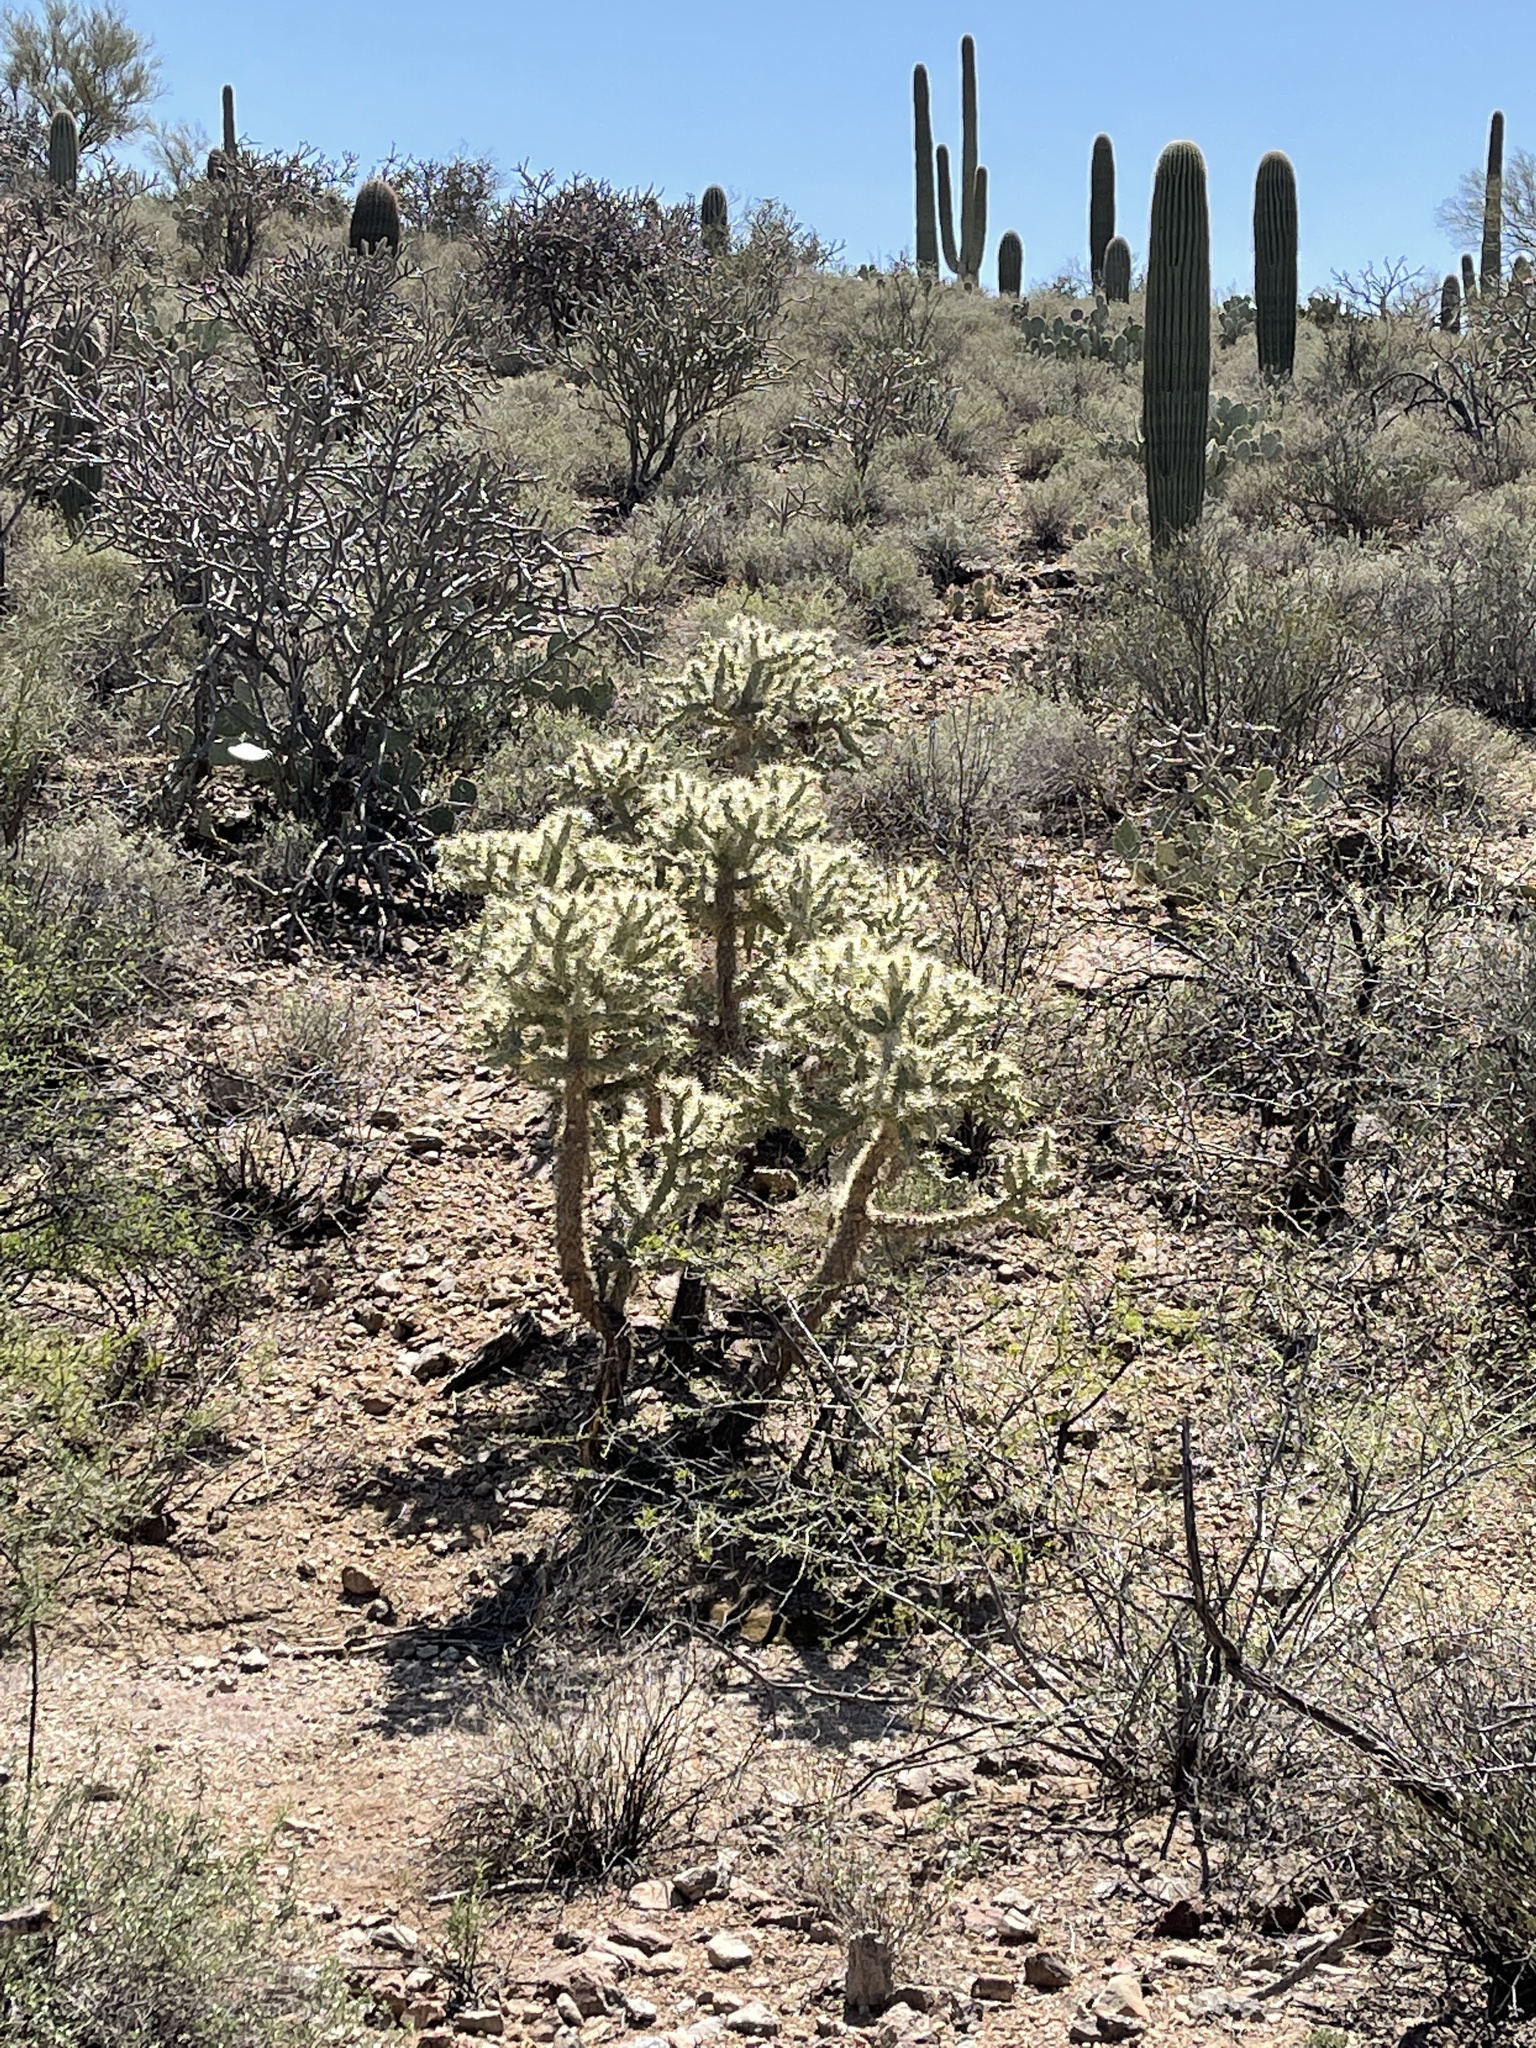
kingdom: Plantae
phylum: Tracheophyta
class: Magnoliopsida
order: Caryophyllales
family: Cactaceae
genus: Cylindropuntia
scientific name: Cylindropuntia fulgida
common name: Jumping cholla
